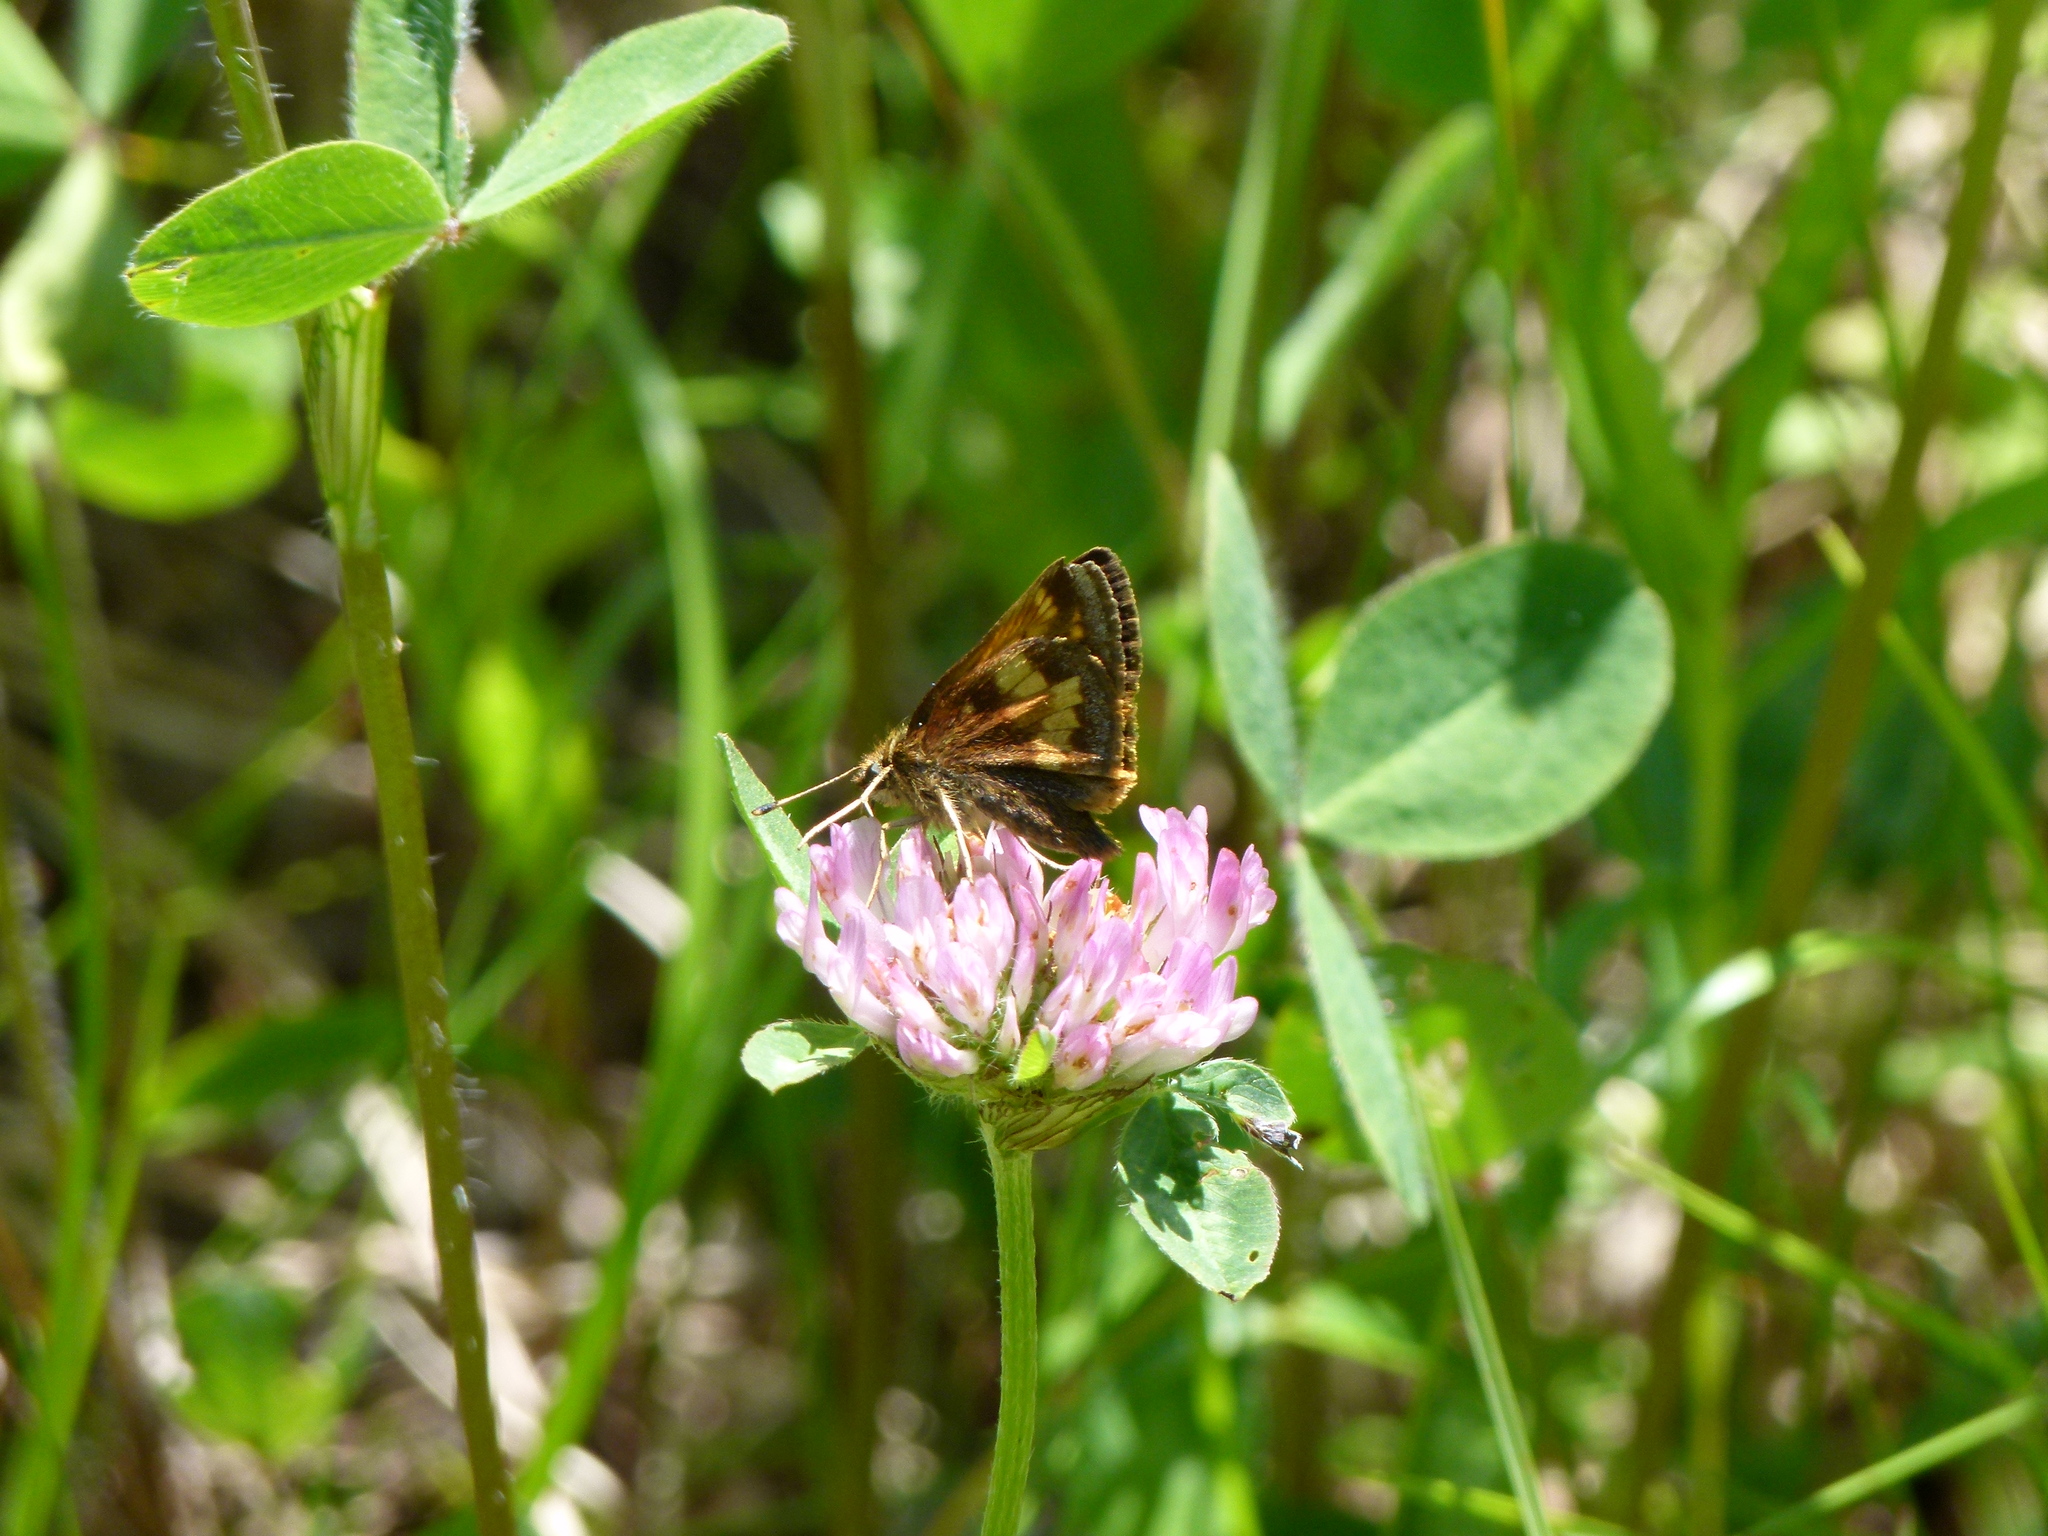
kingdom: Animalia
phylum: Arthropoda
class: Insecta
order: Lepidoptera
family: Hesperiidae
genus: Lon
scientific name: Lon hobomok
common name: Hobomok skipper
